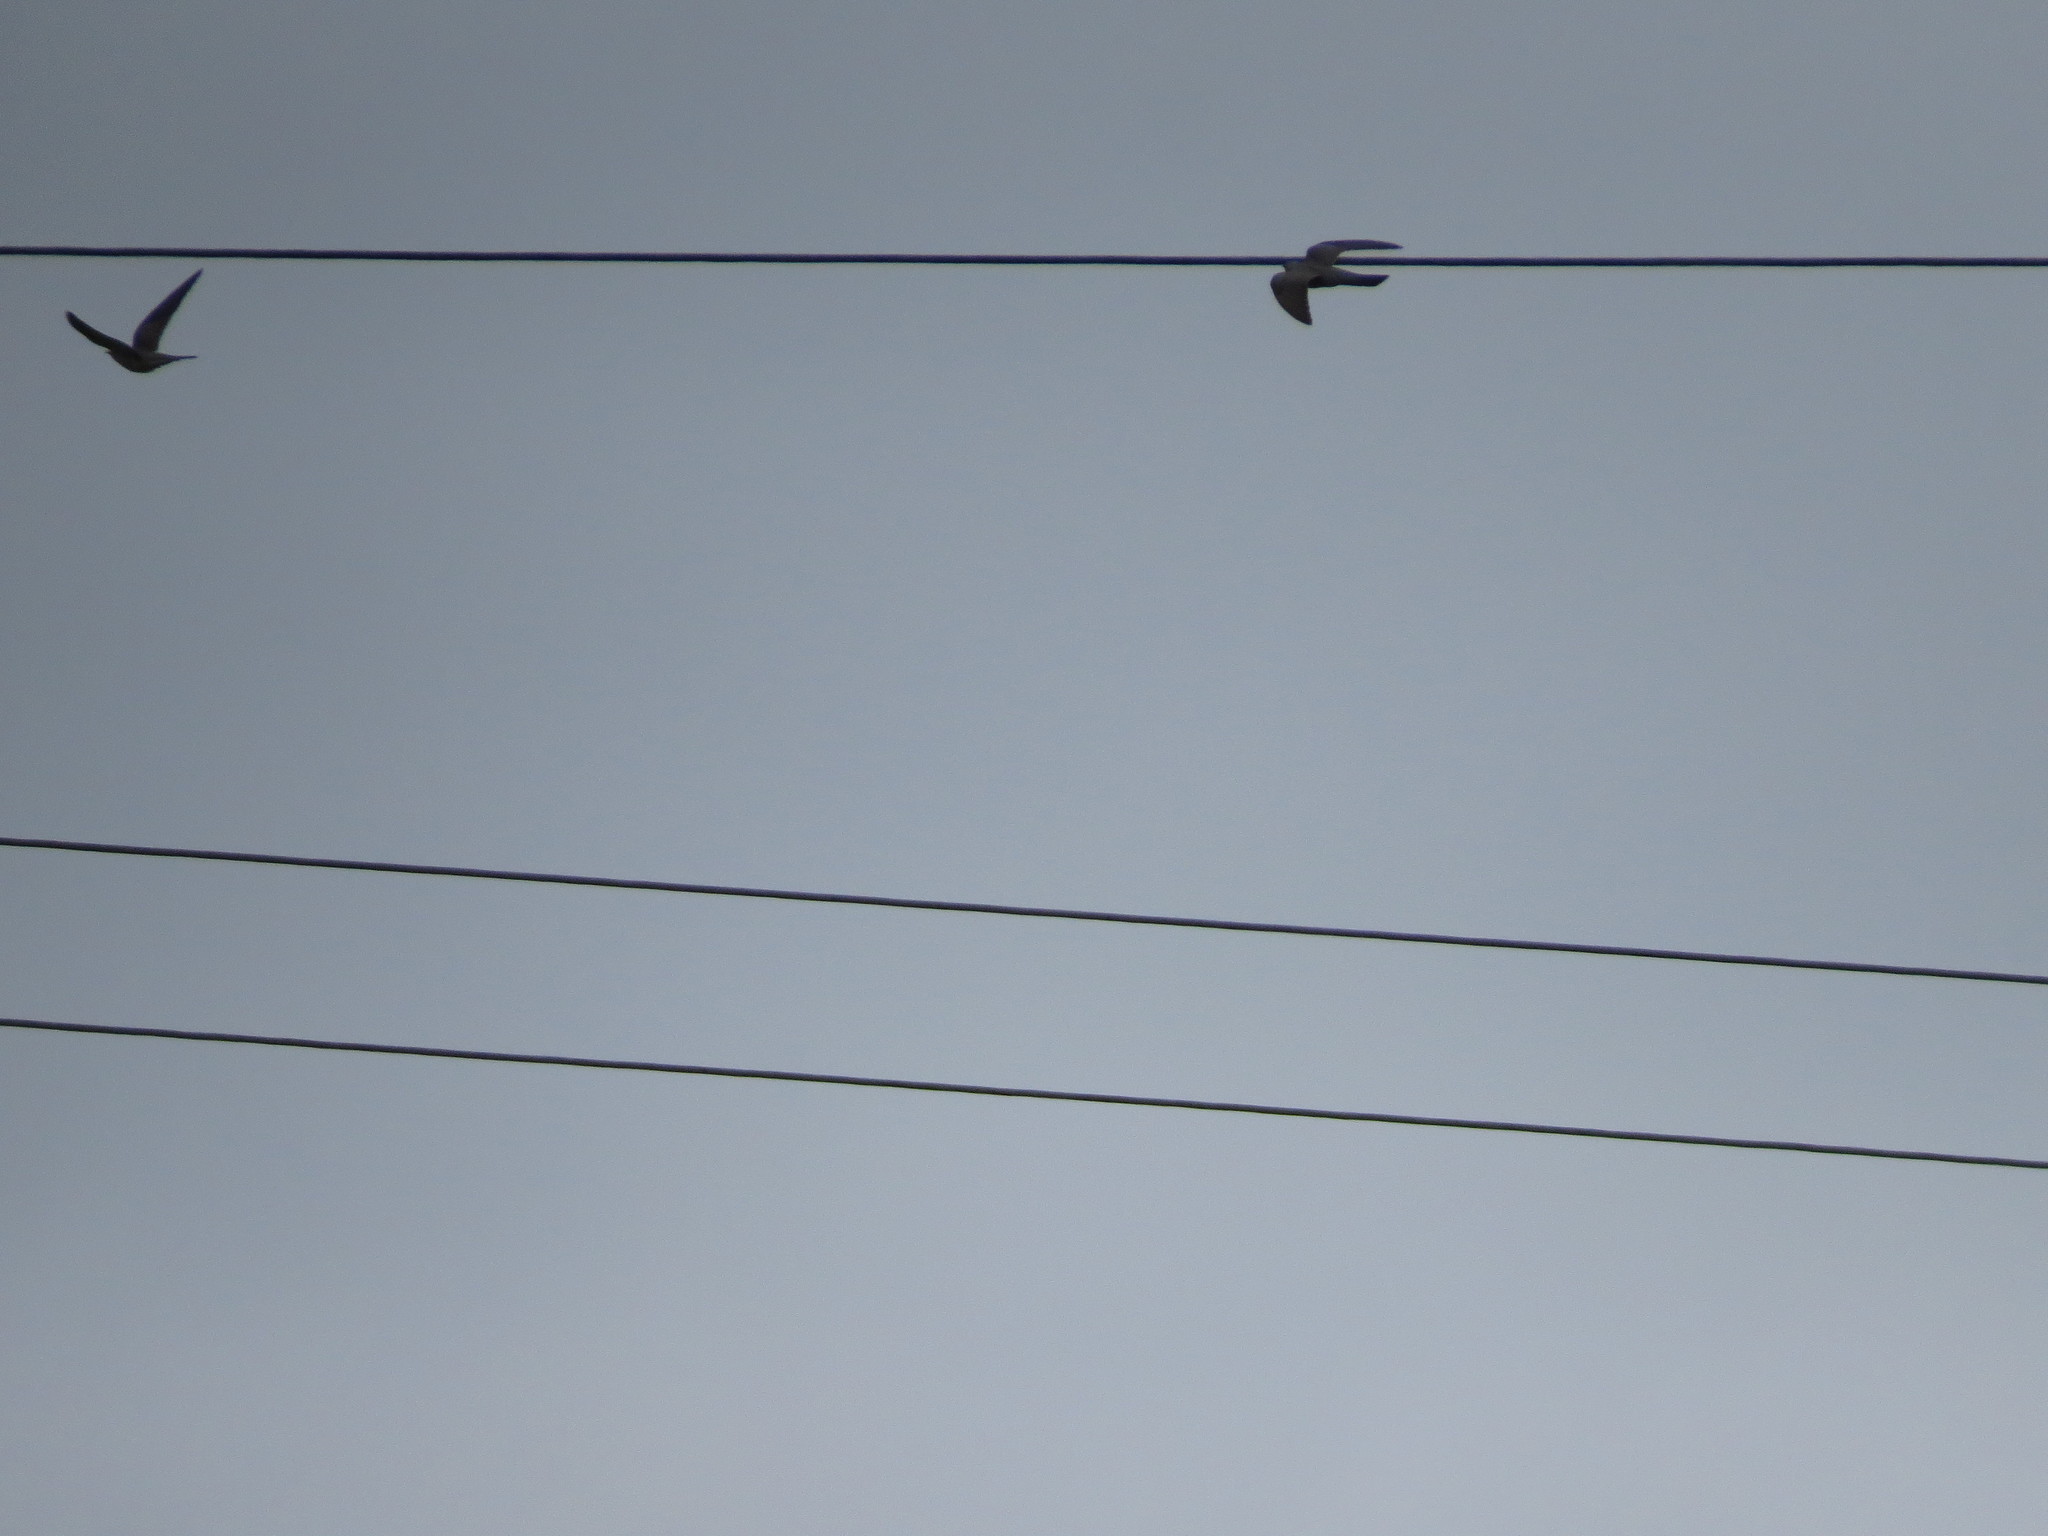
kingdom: Animalia
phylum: Chordata
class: Aves
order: Cuculiformes
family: Cuculidae
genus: Cuculus
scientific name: Cuculus canorus
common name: Common cuckoo
